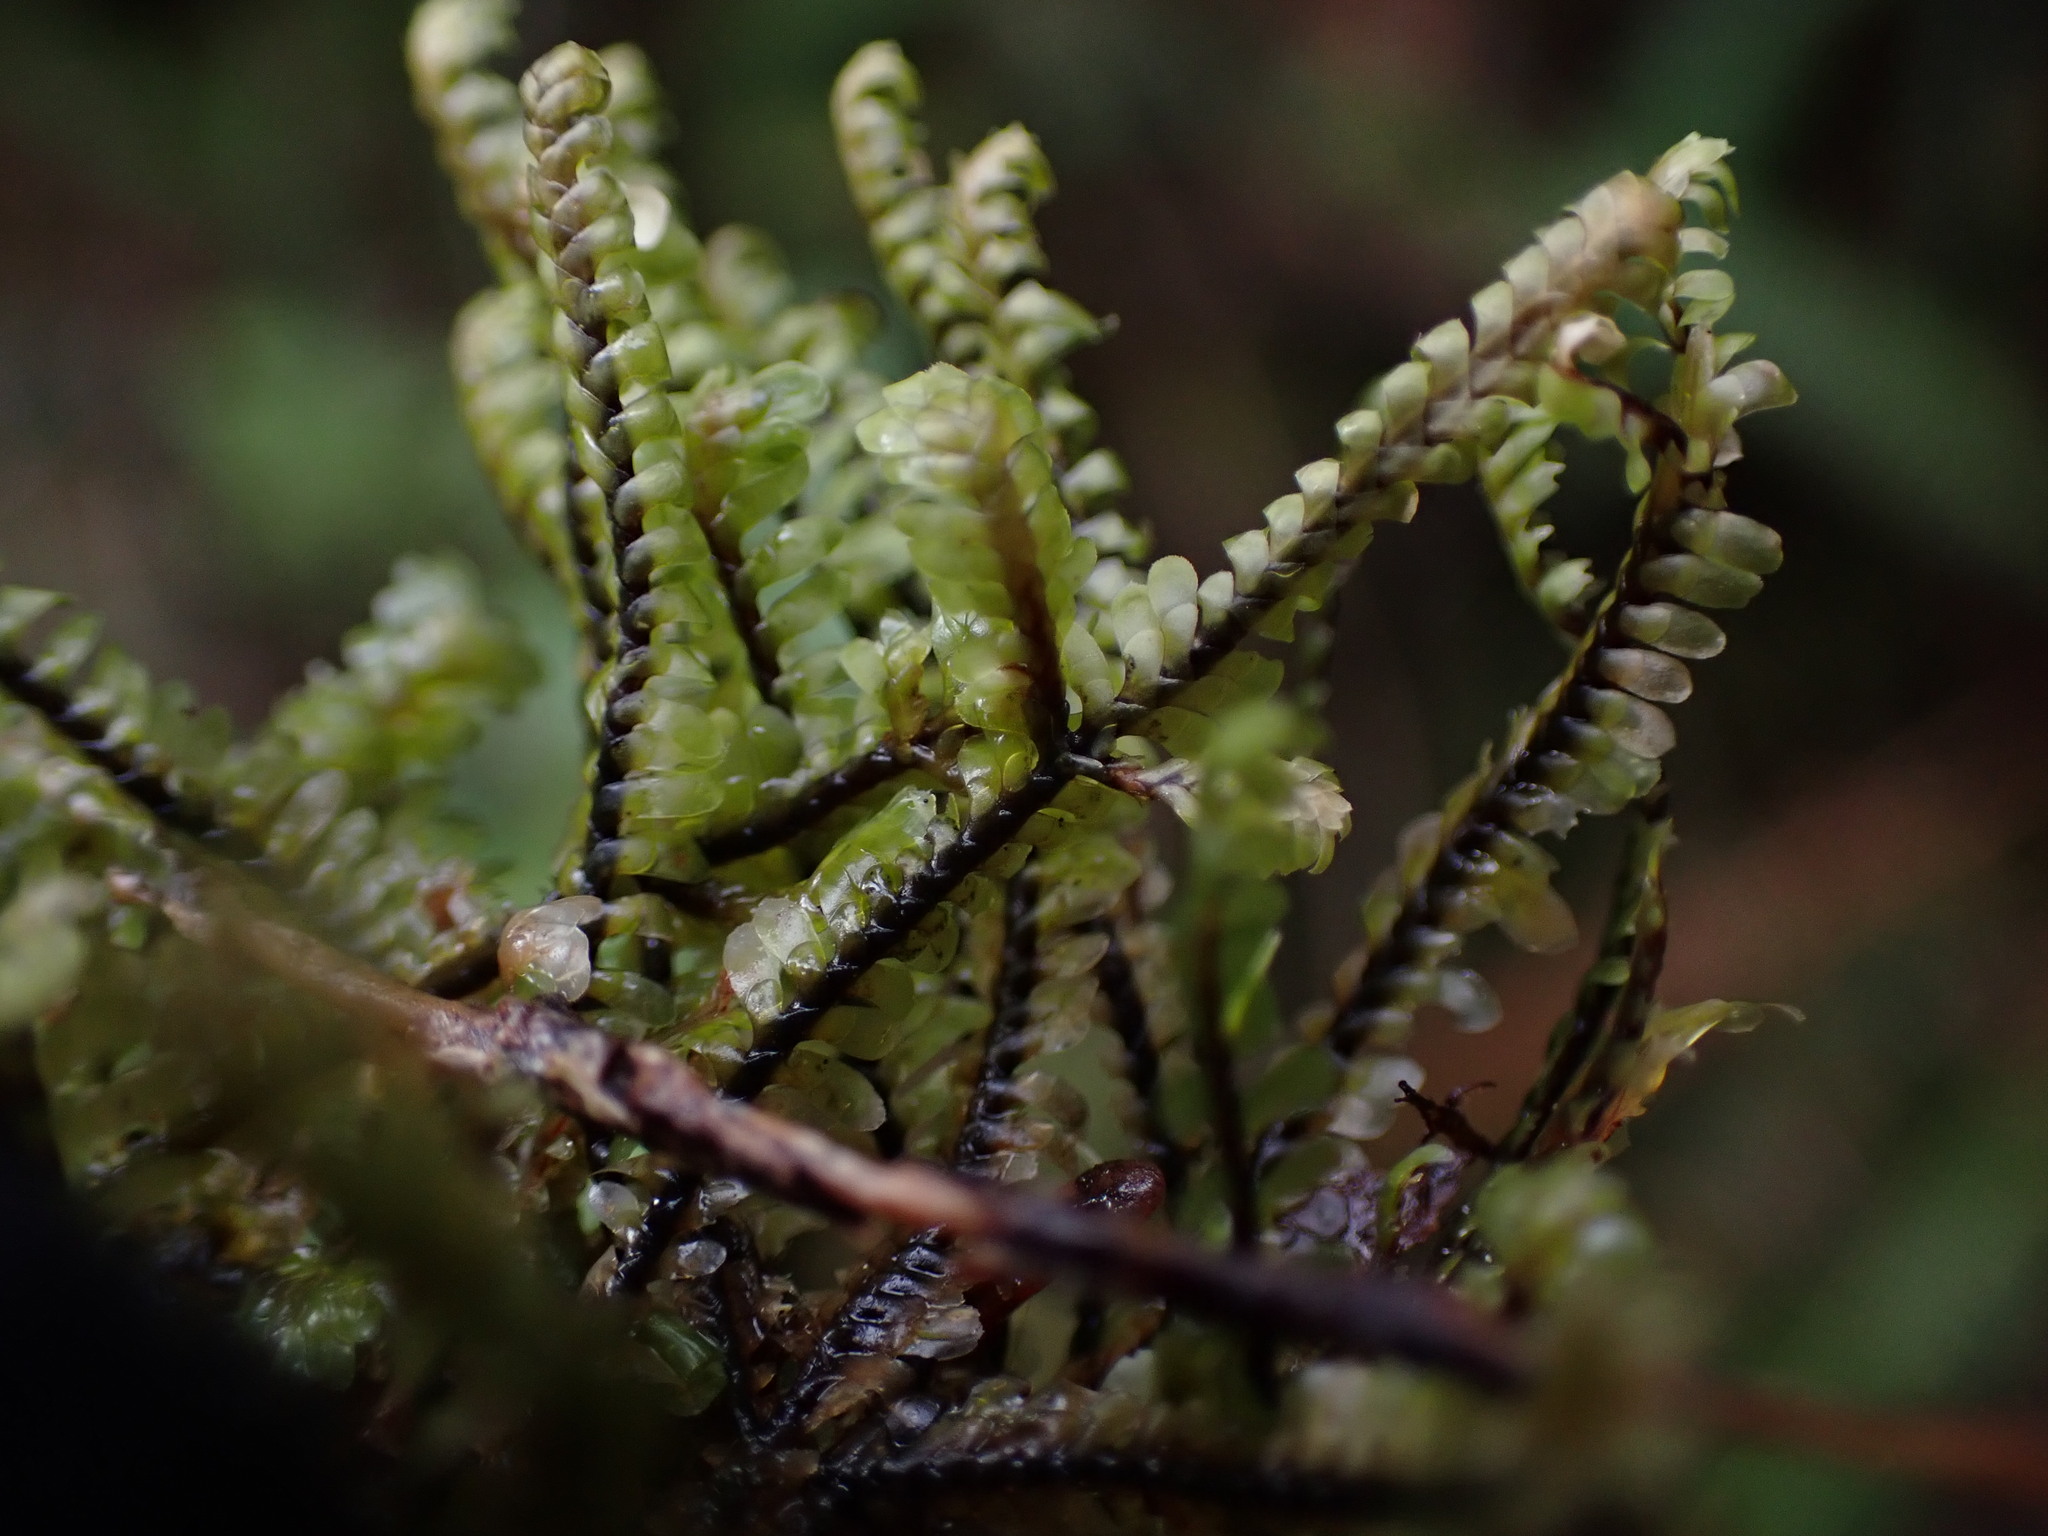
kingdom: Plantae
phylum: Marchantiophyta
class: Jungermanniopsida
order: Jungermanniales
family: Scapaniaceae
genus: Macrodiplophyllum
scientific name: Macrodiplophyllum rubrum
